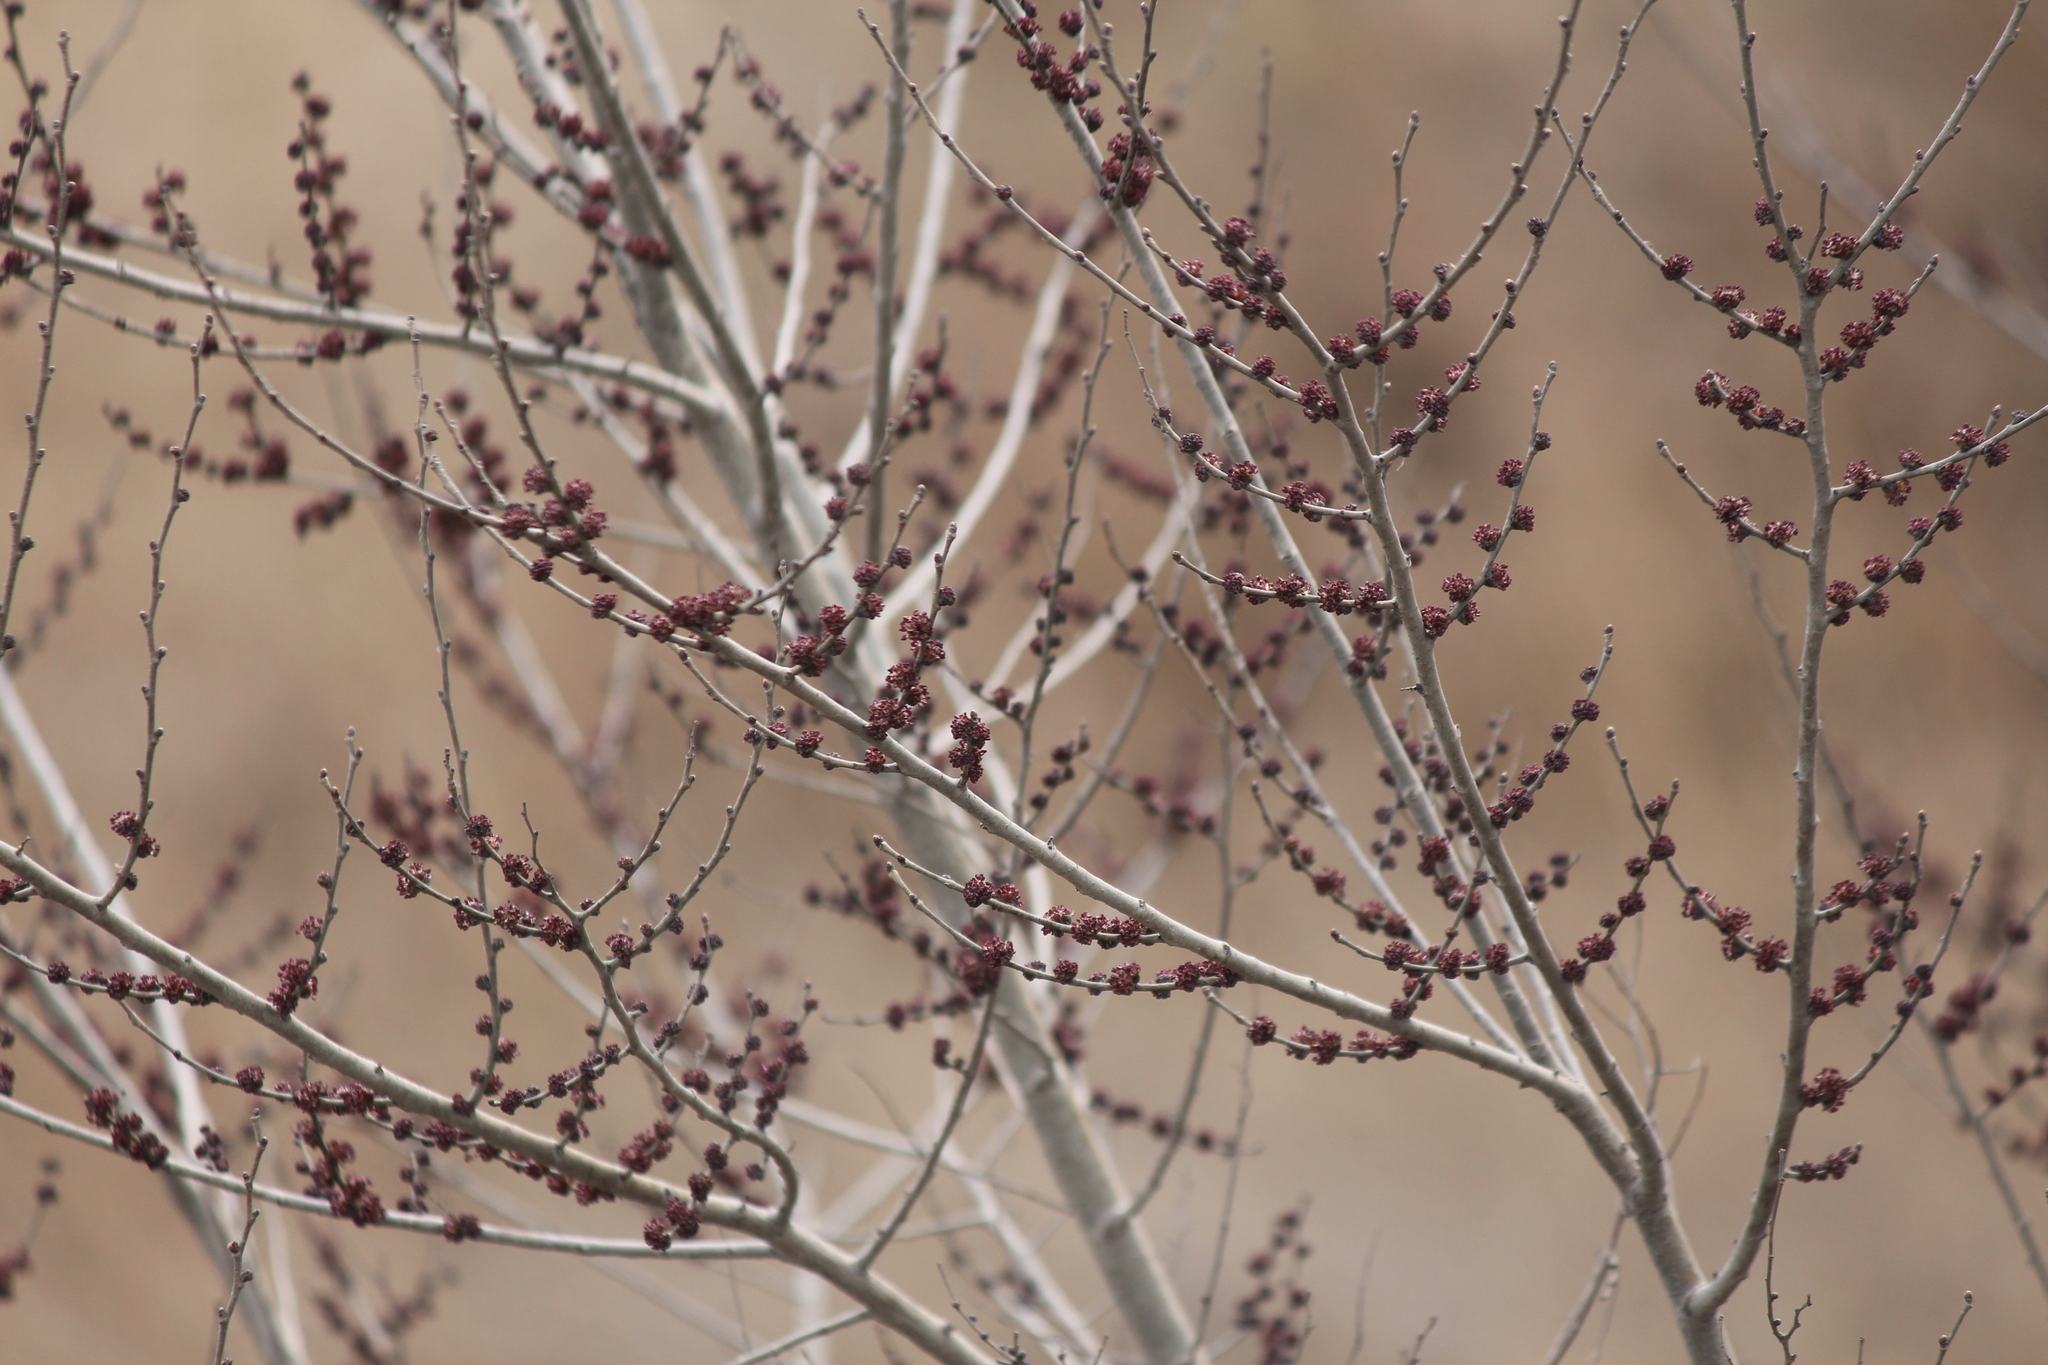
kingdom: Plantae
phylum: Tracheophyta
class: Magnoliopsida
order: Rosales
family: Ulmaceae
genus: Ulmus
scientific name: Ulmus pumila
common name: Siberian elm
